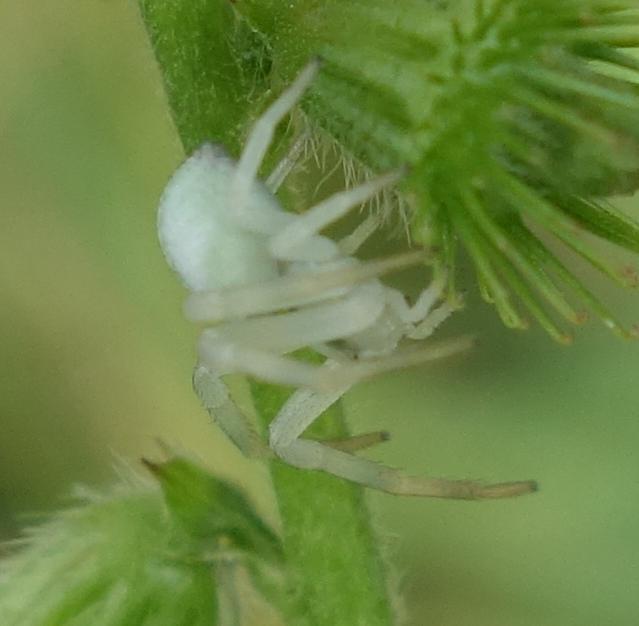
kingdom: Animalia
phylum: Arthropoda
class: Arachnida
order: Araneae
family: Thomisidae
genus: Misumena
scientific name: Misumena vatia
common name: Goldenrod crab spider
